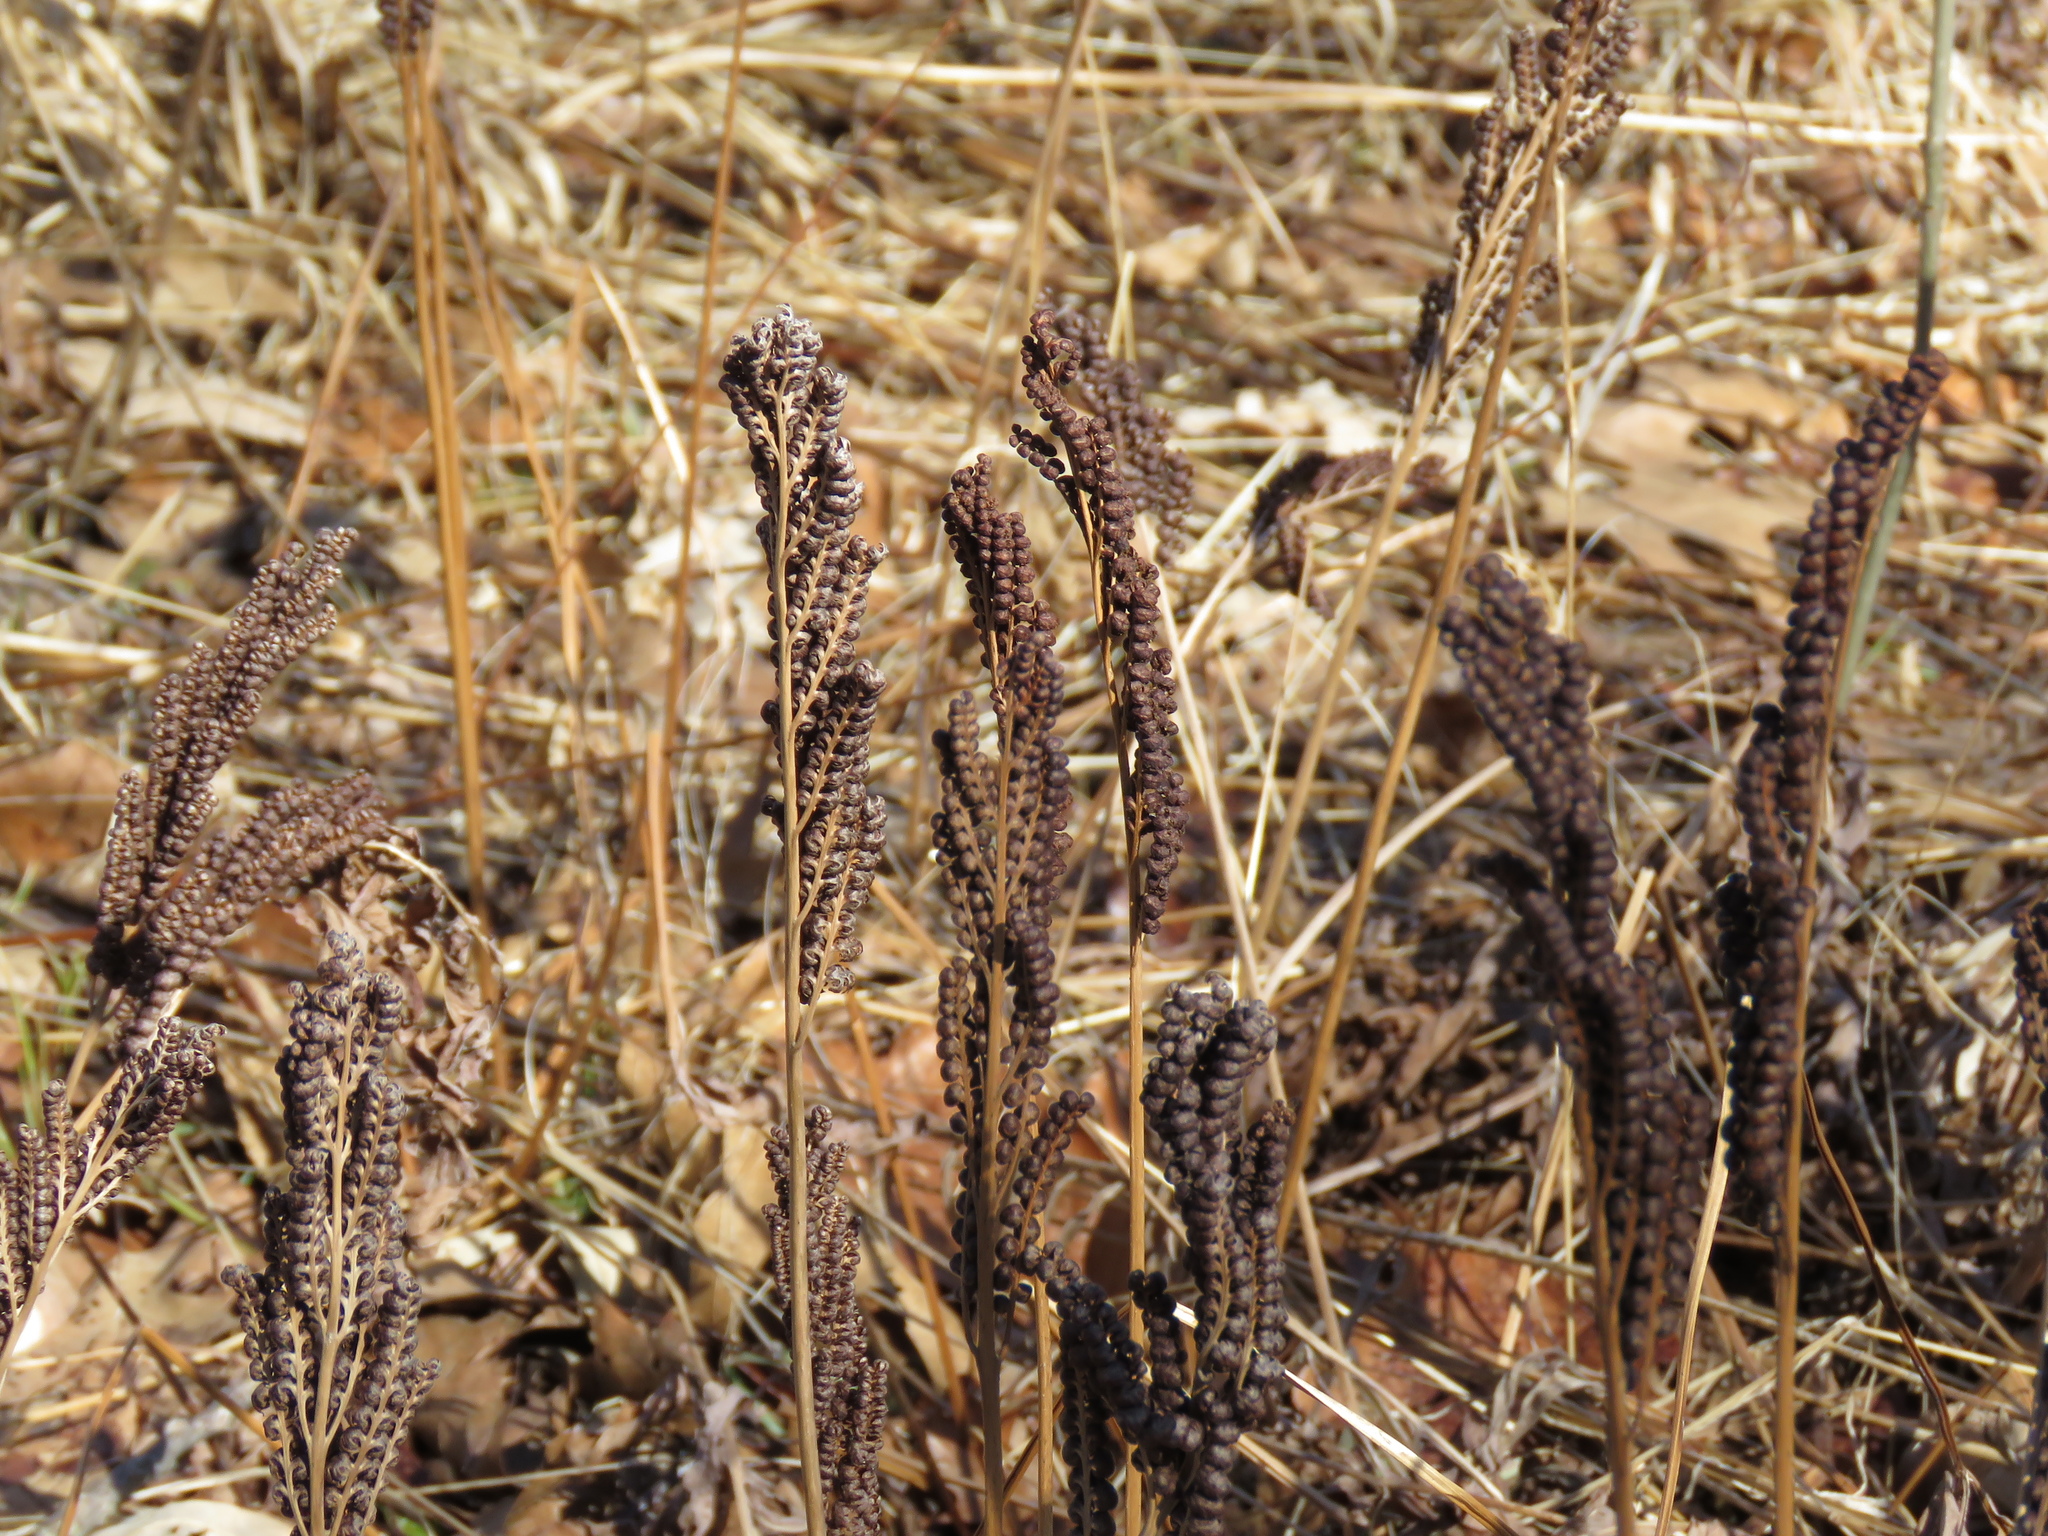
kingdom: Plantae
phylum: Tracheophyta
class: Polypodiopsida
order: Polypodiales
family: Onocleaceae
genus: Onoclea
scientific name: Onoclea sensibilis
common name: Sensitive fern
